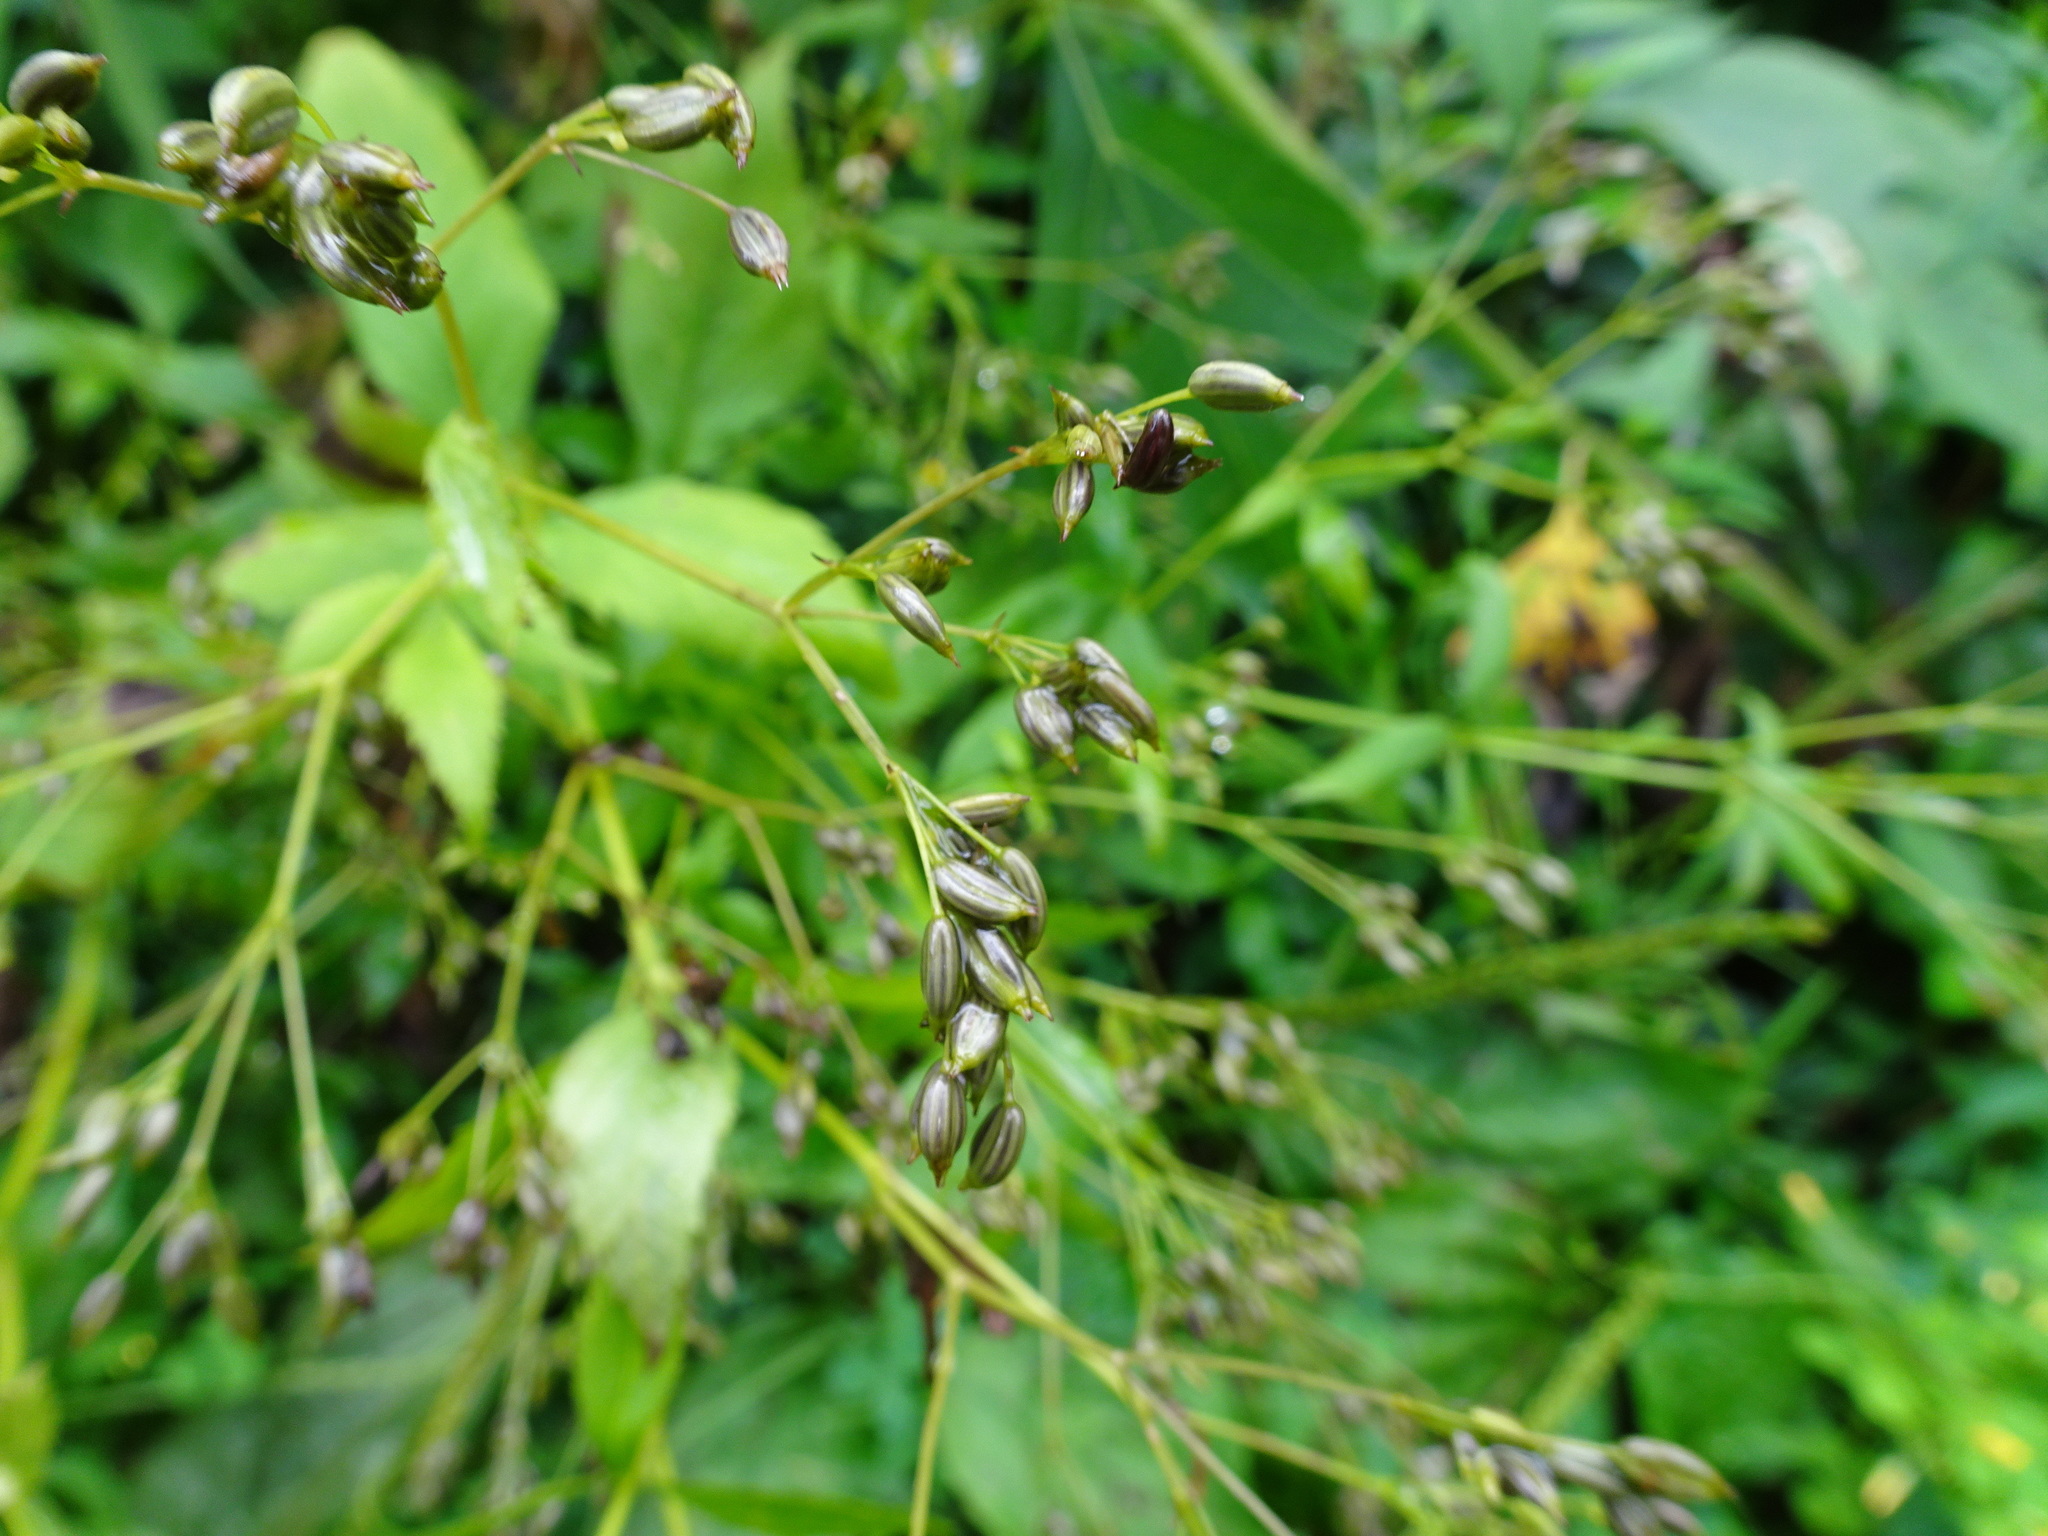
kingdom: Plantae
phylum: Tracheophyta
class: Magnoliopsida
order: Apiales
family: Apiaceae
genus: Cryptotaenia
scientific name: Cryptotaenia canadensis
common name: Honewort
